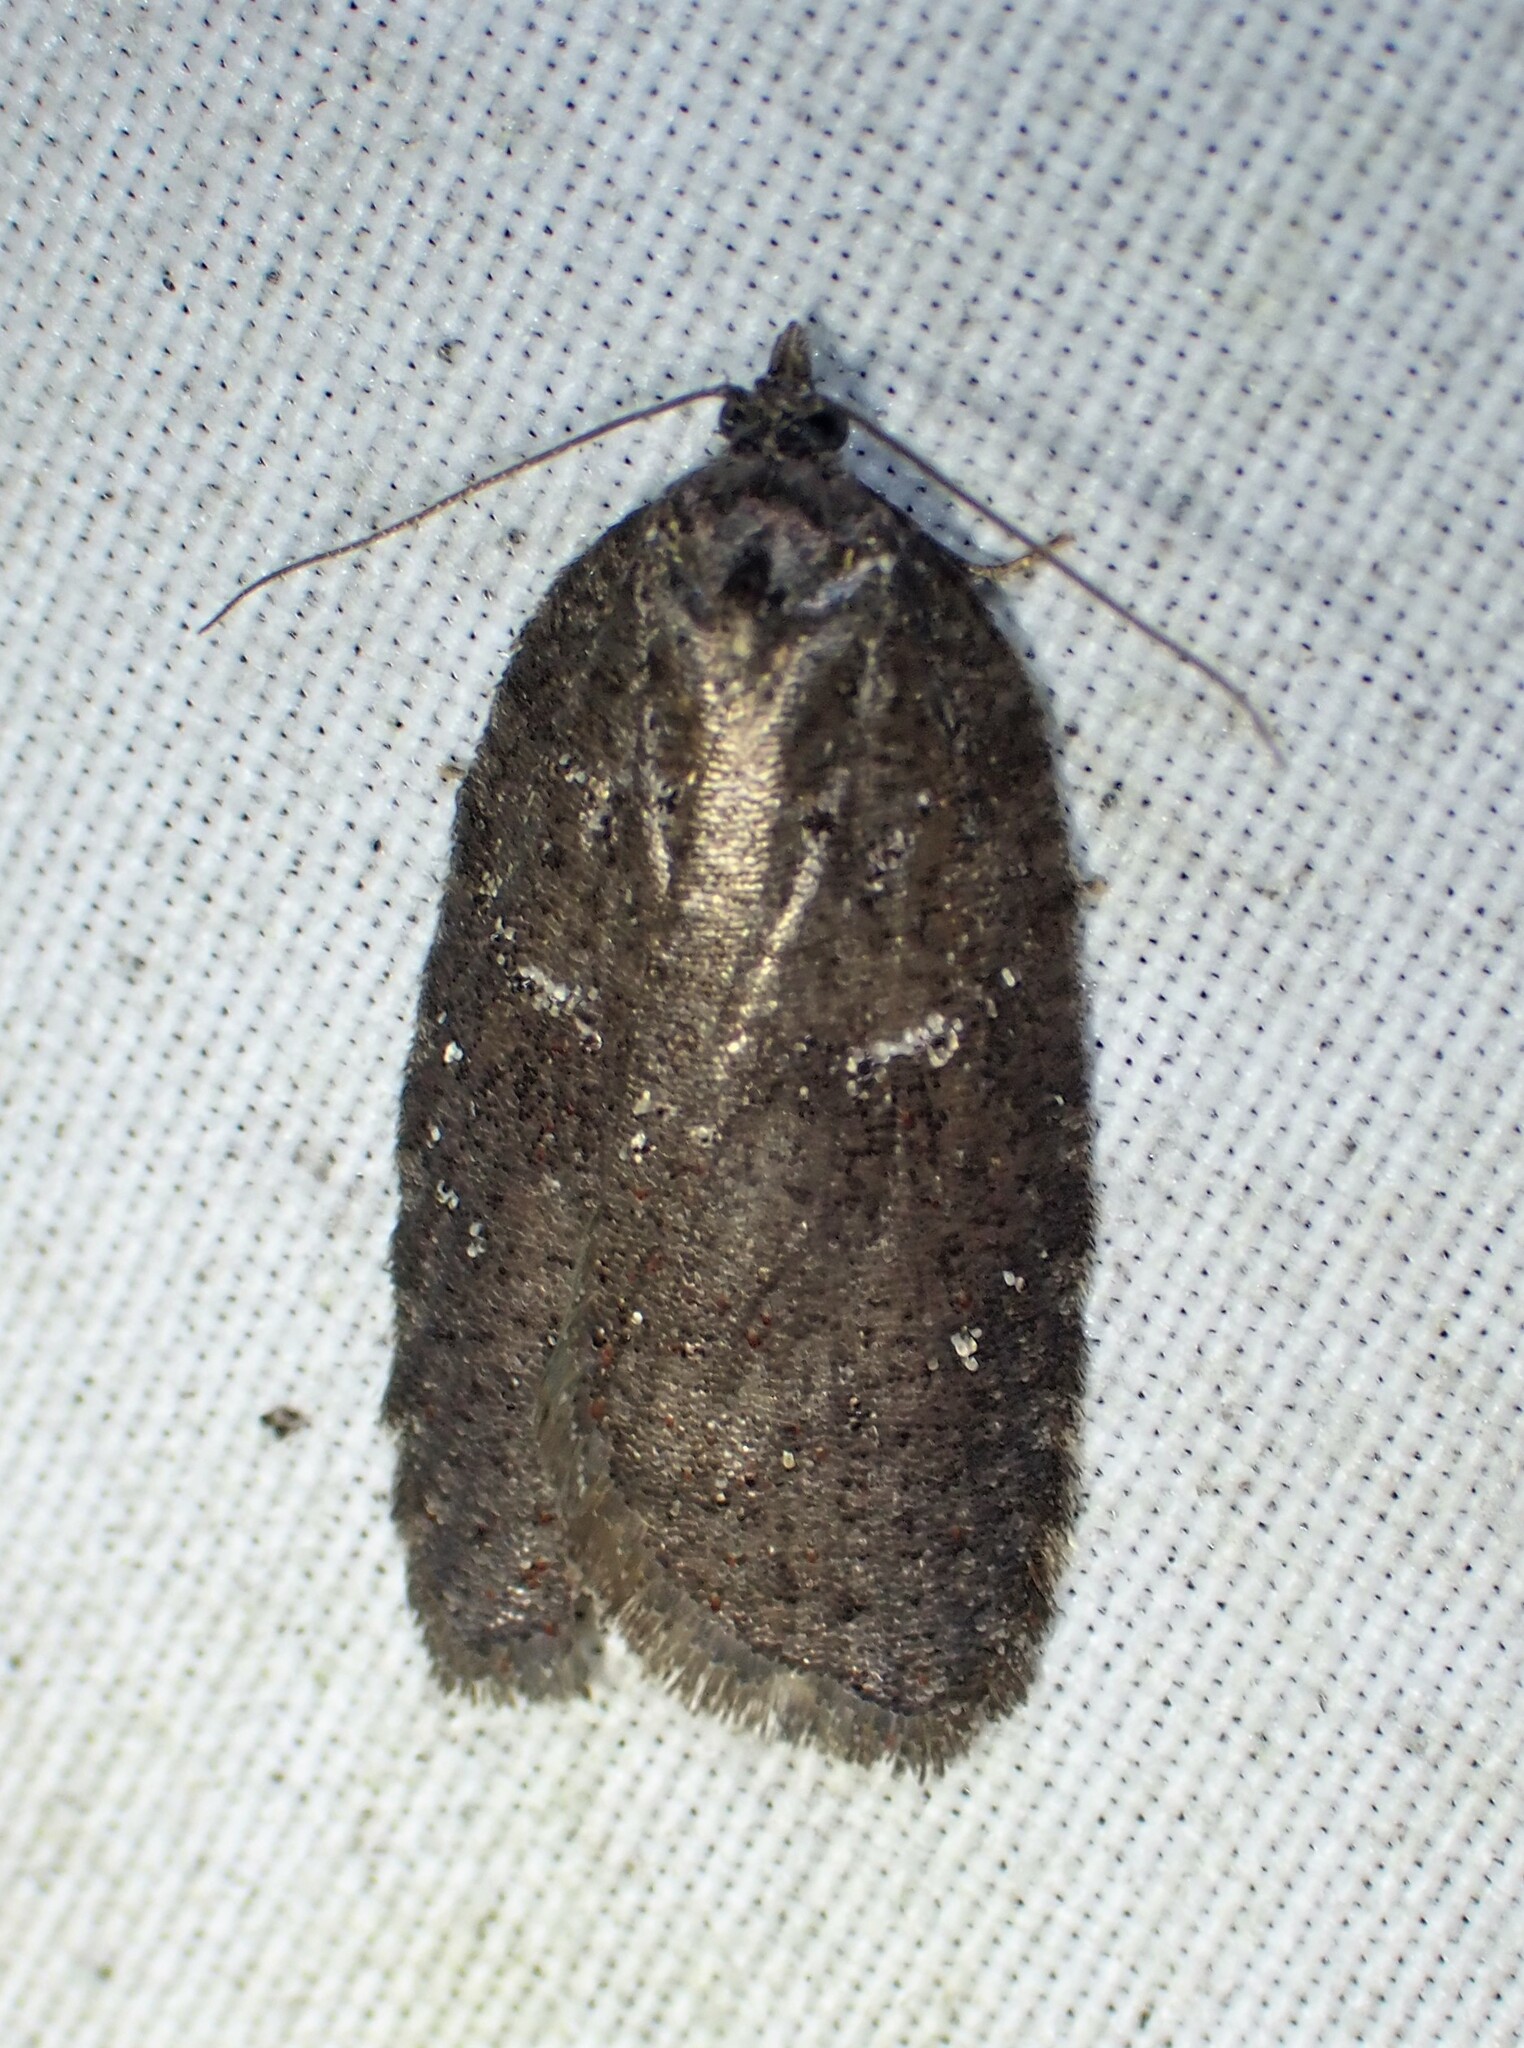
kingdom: Animalia
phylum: Arthropoda
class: Insecta
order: Lepidoptera
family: Tortricidae
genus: Acleris
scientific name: Acleris caliginosana
